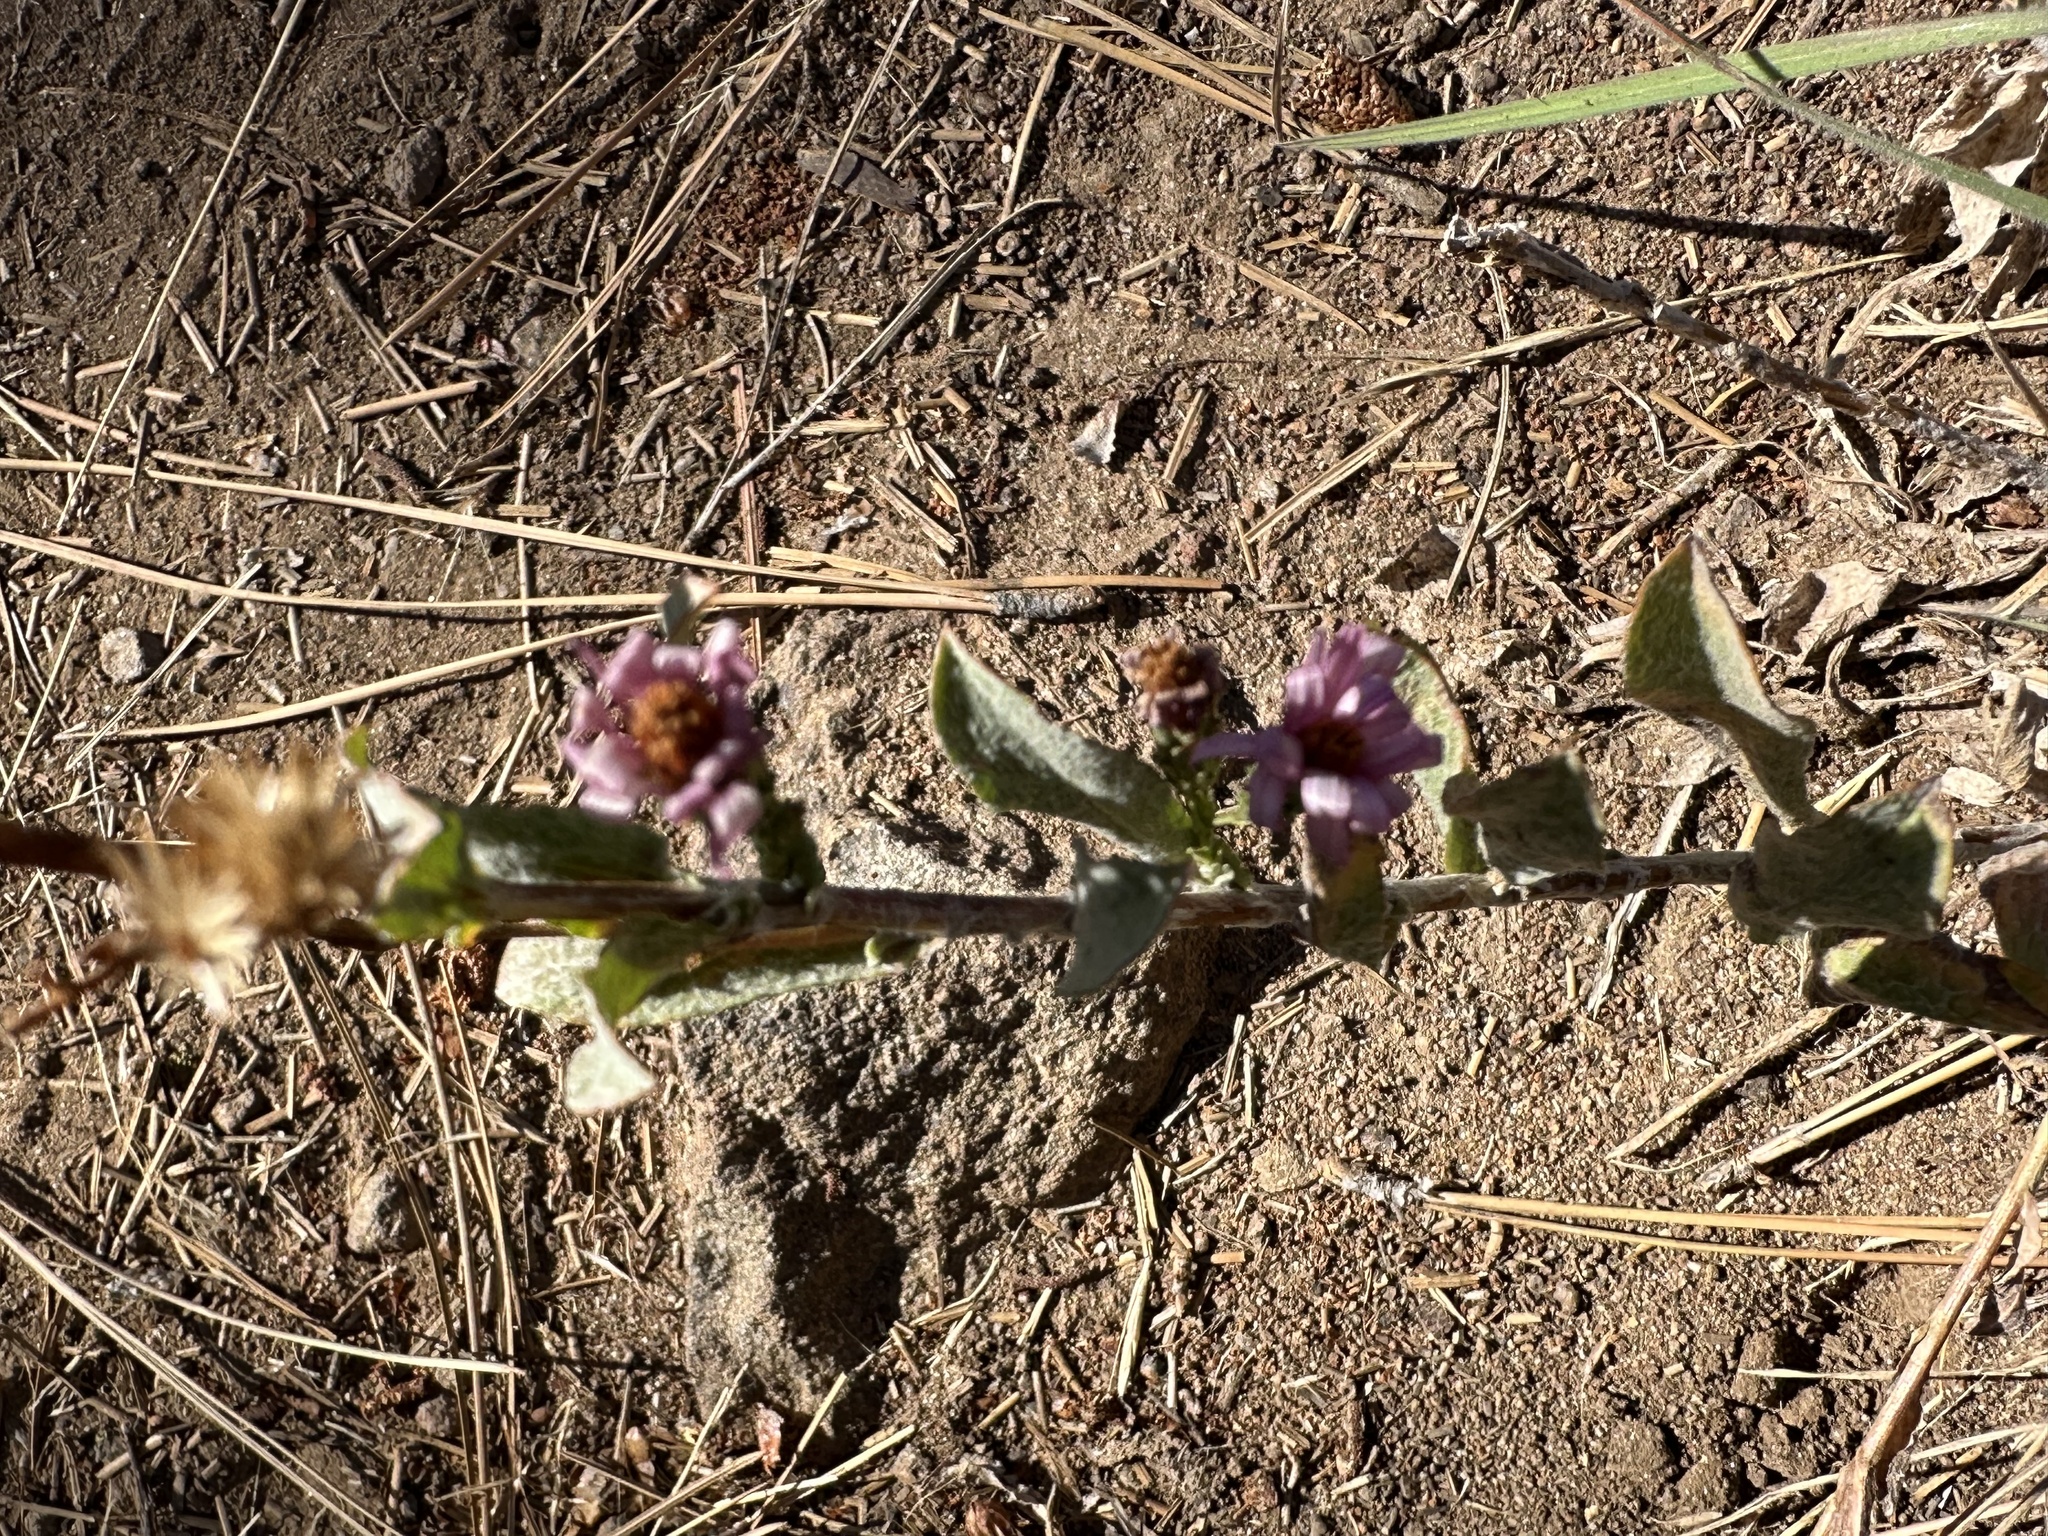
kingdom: Plantae
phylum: Tracheophyta
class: Magnoliopsida
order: Asterales
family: Asteraceae
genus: Corethrogyne
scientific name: Corethrogyne filaginifolia
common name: Sand-aster
